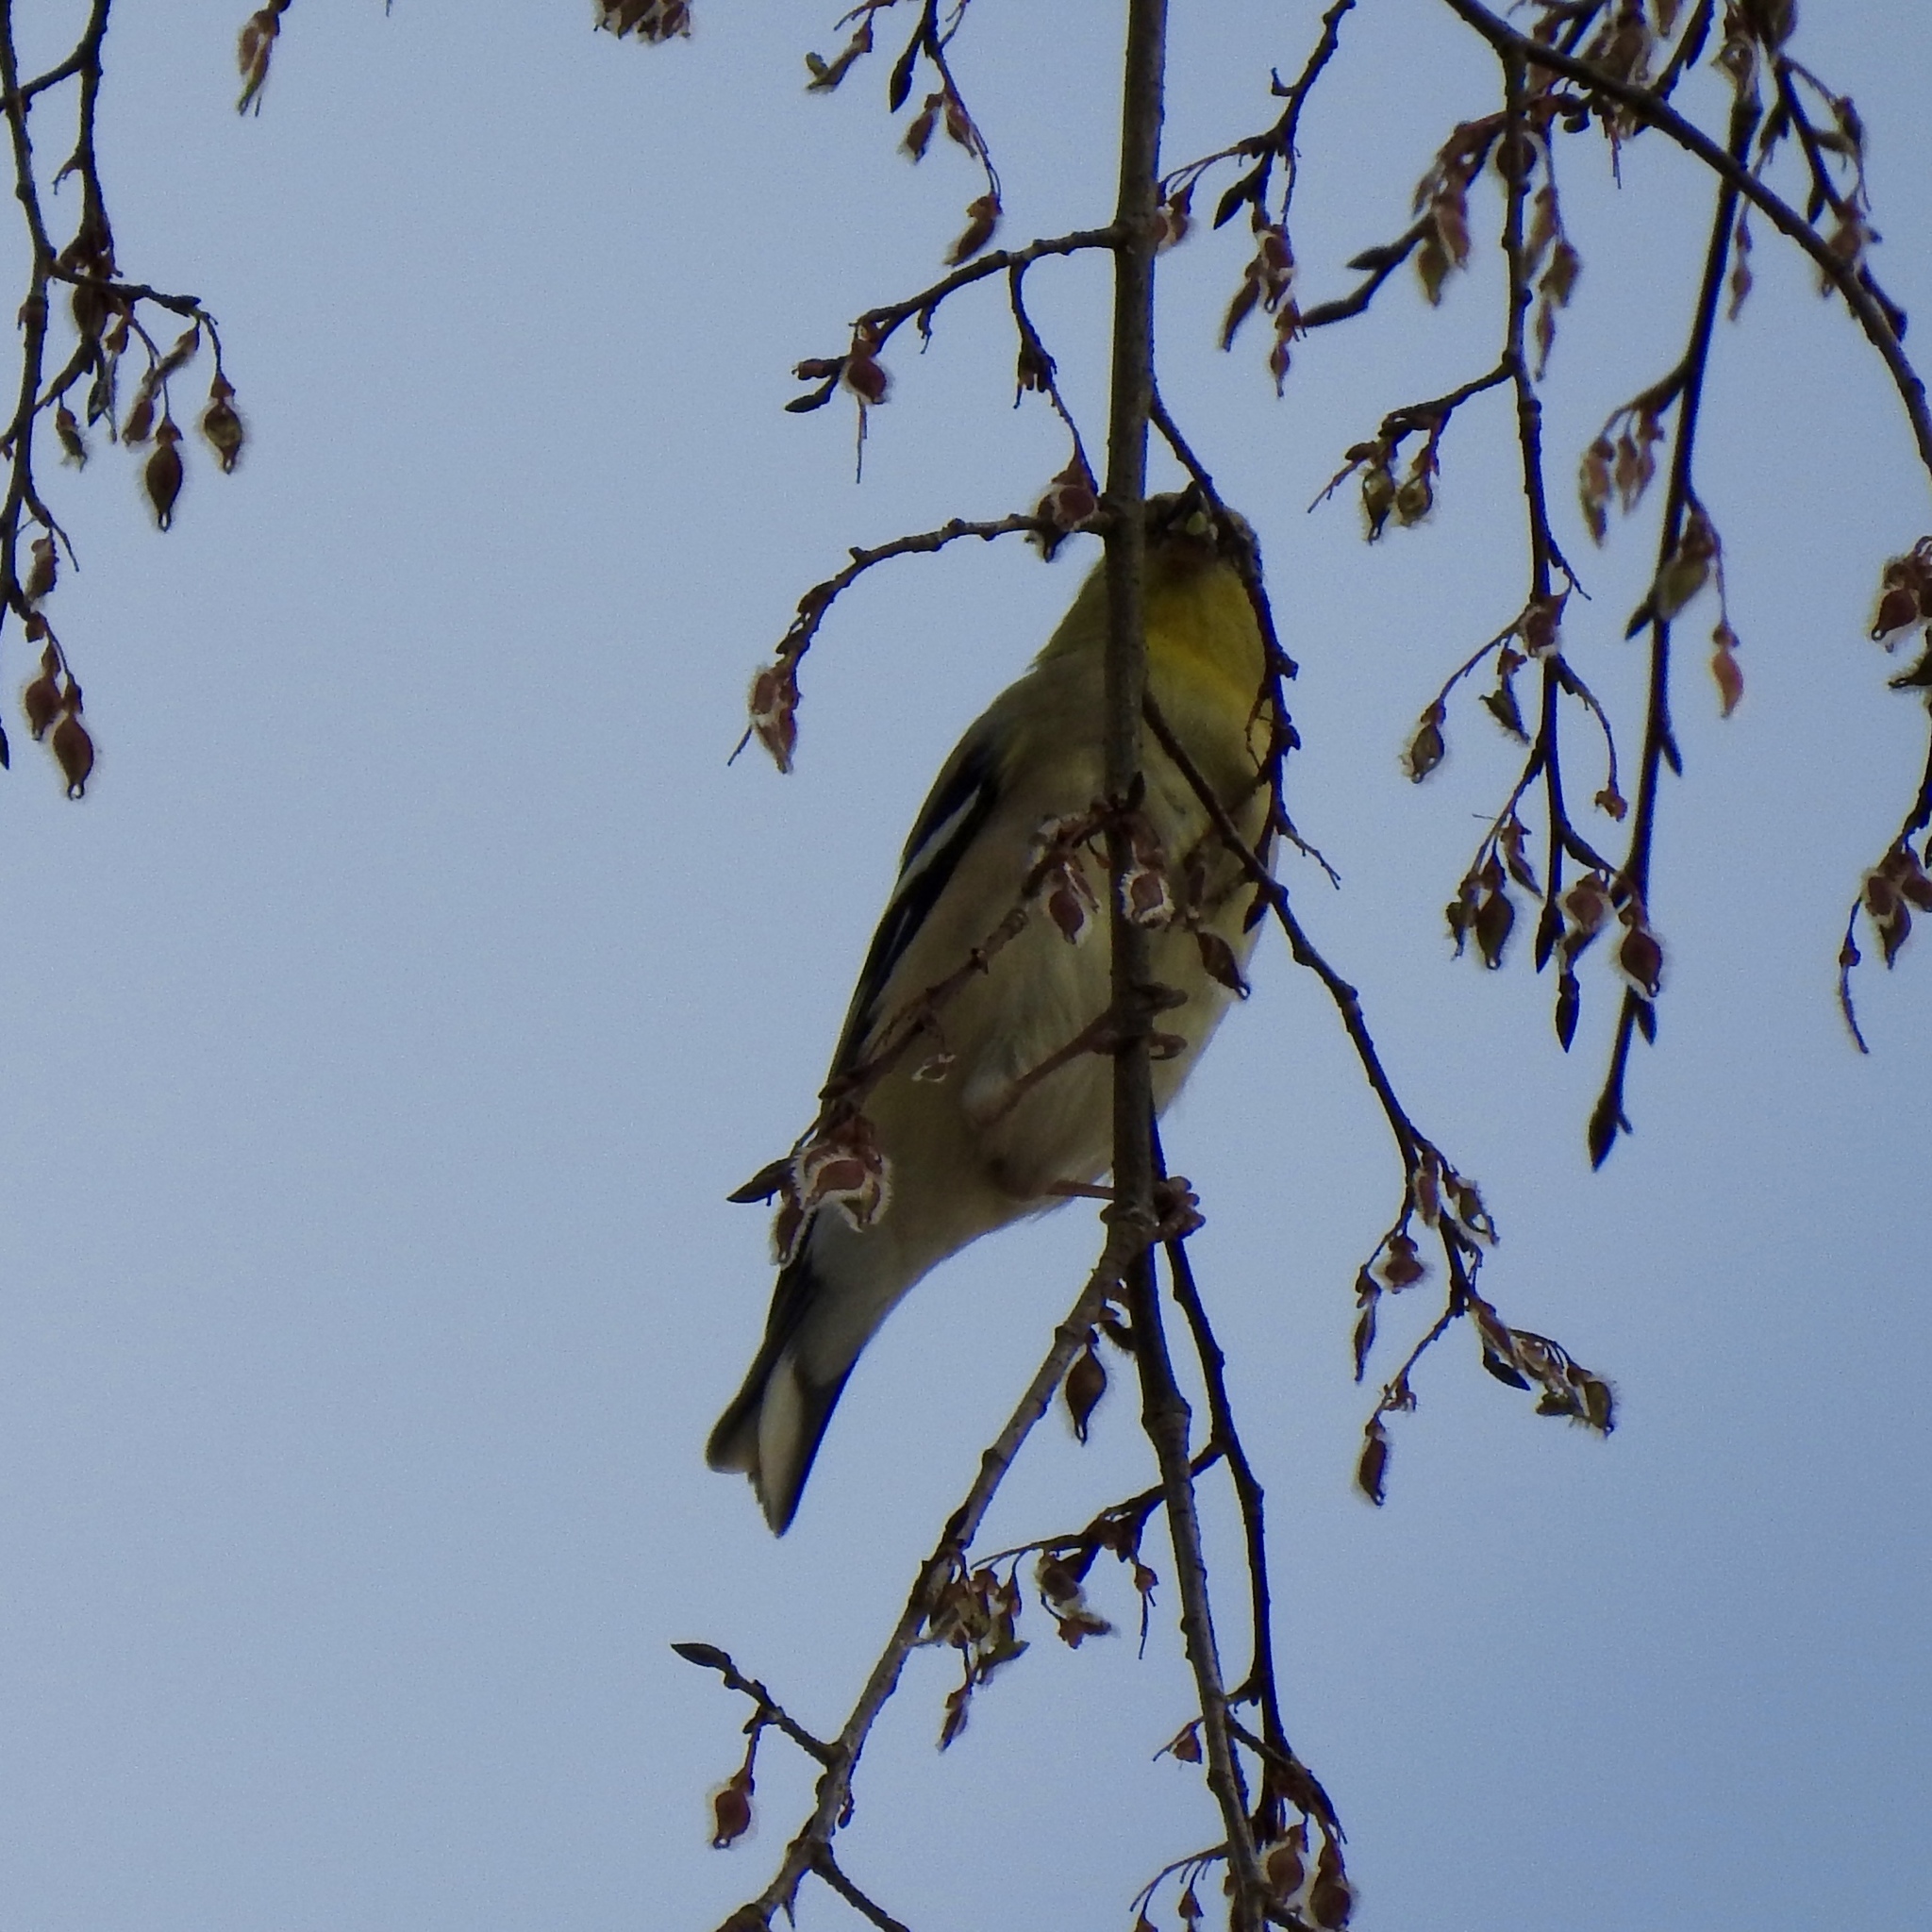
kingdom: Animalia
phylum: Chordata
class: Aves
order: Passeriformes
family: Fringillidae
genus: Spinus
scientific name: Spinus tristis
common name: American goldfinch
